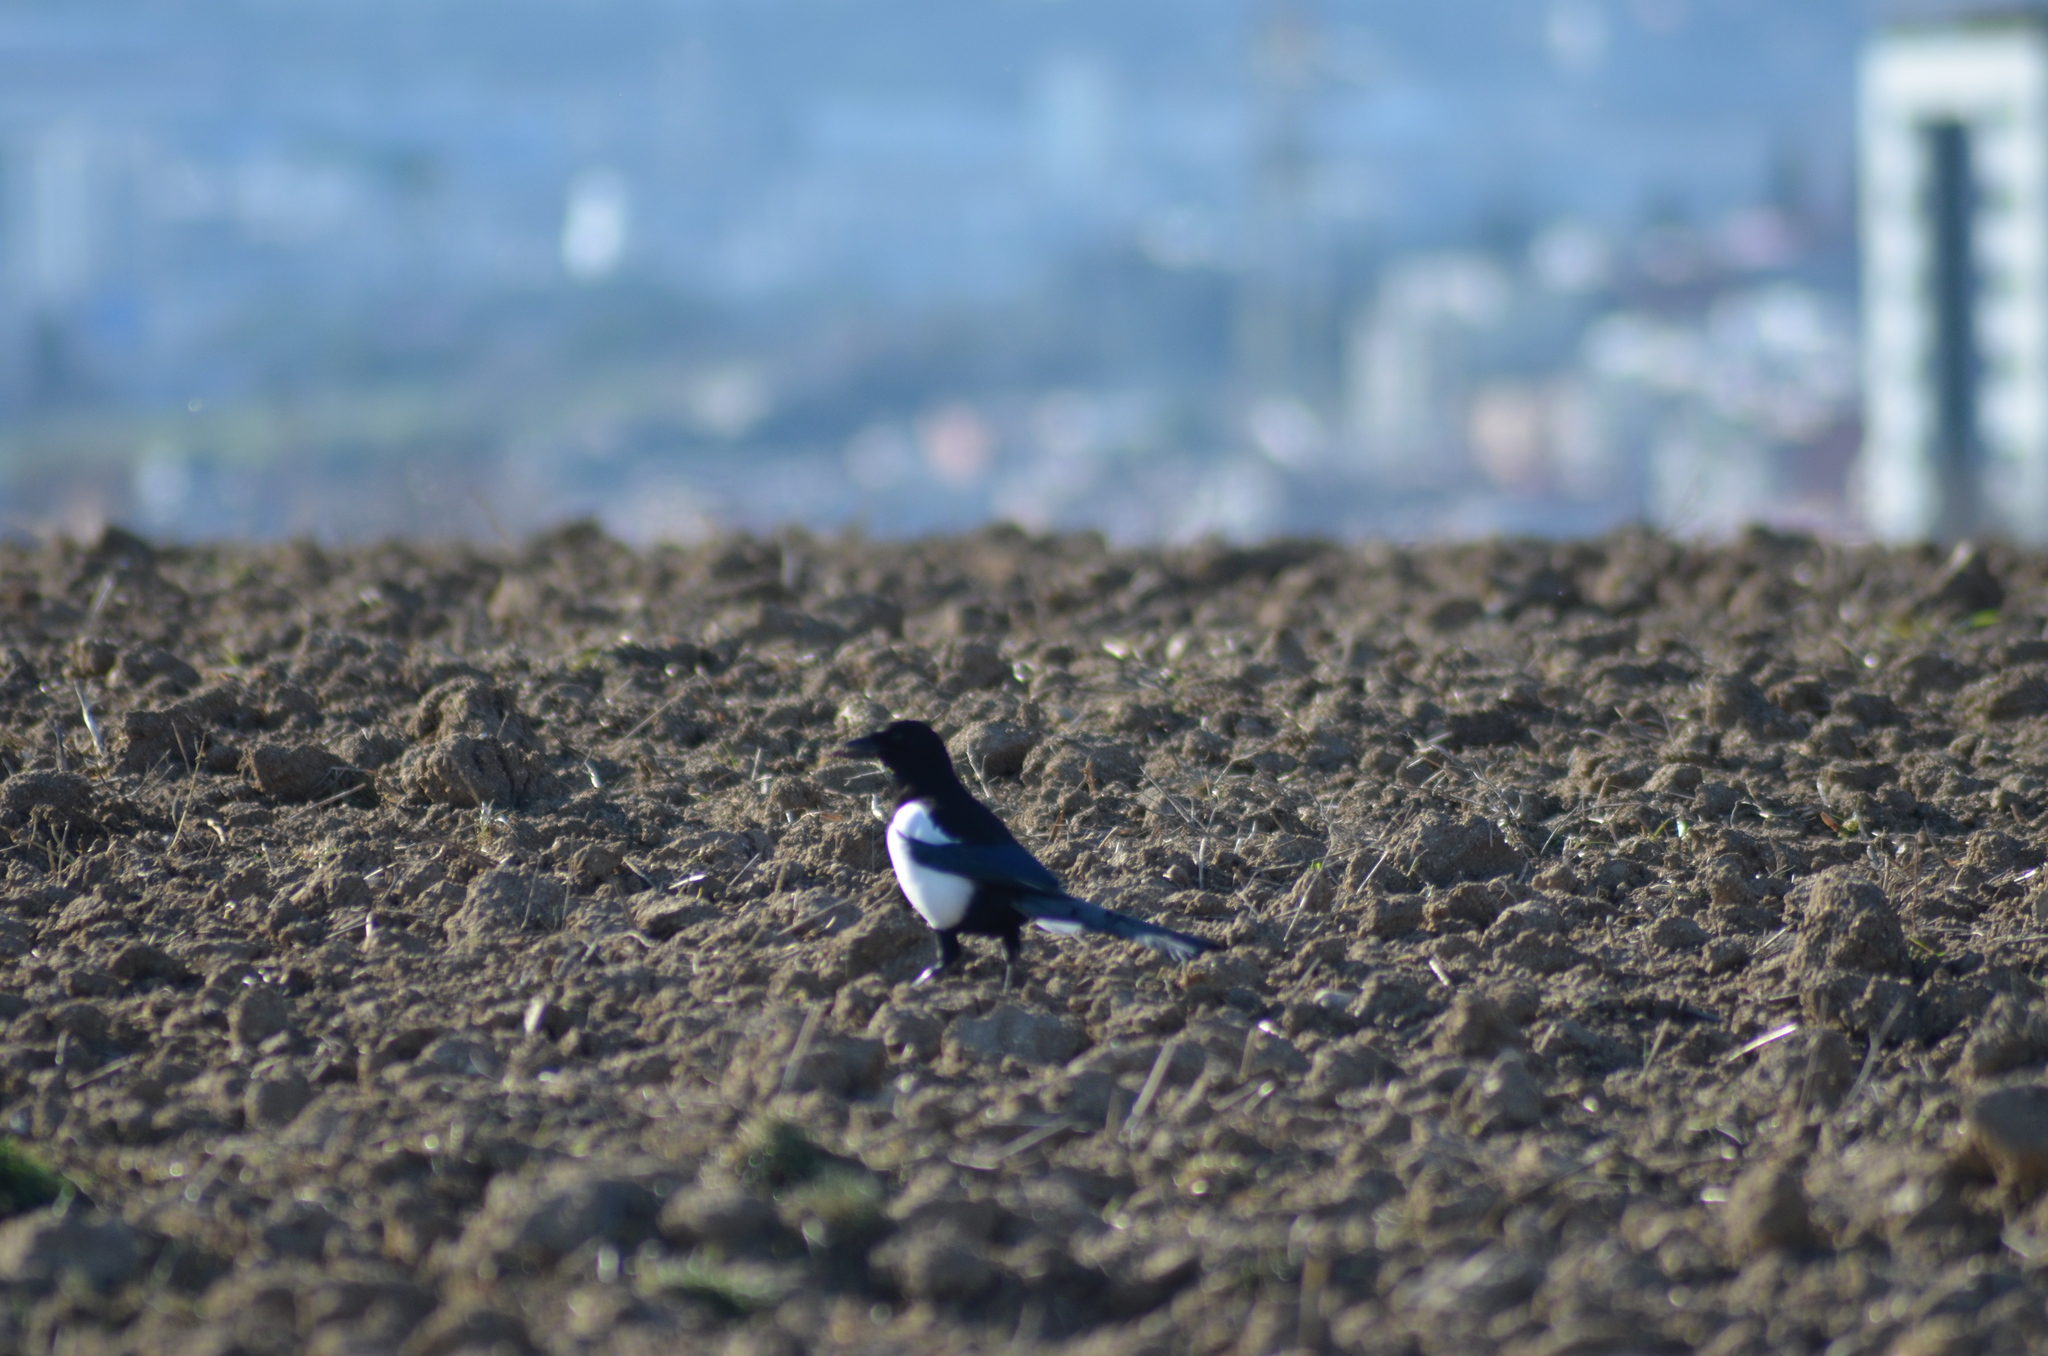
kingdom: Animalia
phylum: Chordata
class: Aves
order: Passeriformes
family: Corvidae
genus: Pica
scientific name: Pica pica
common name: Eurasian magpie
